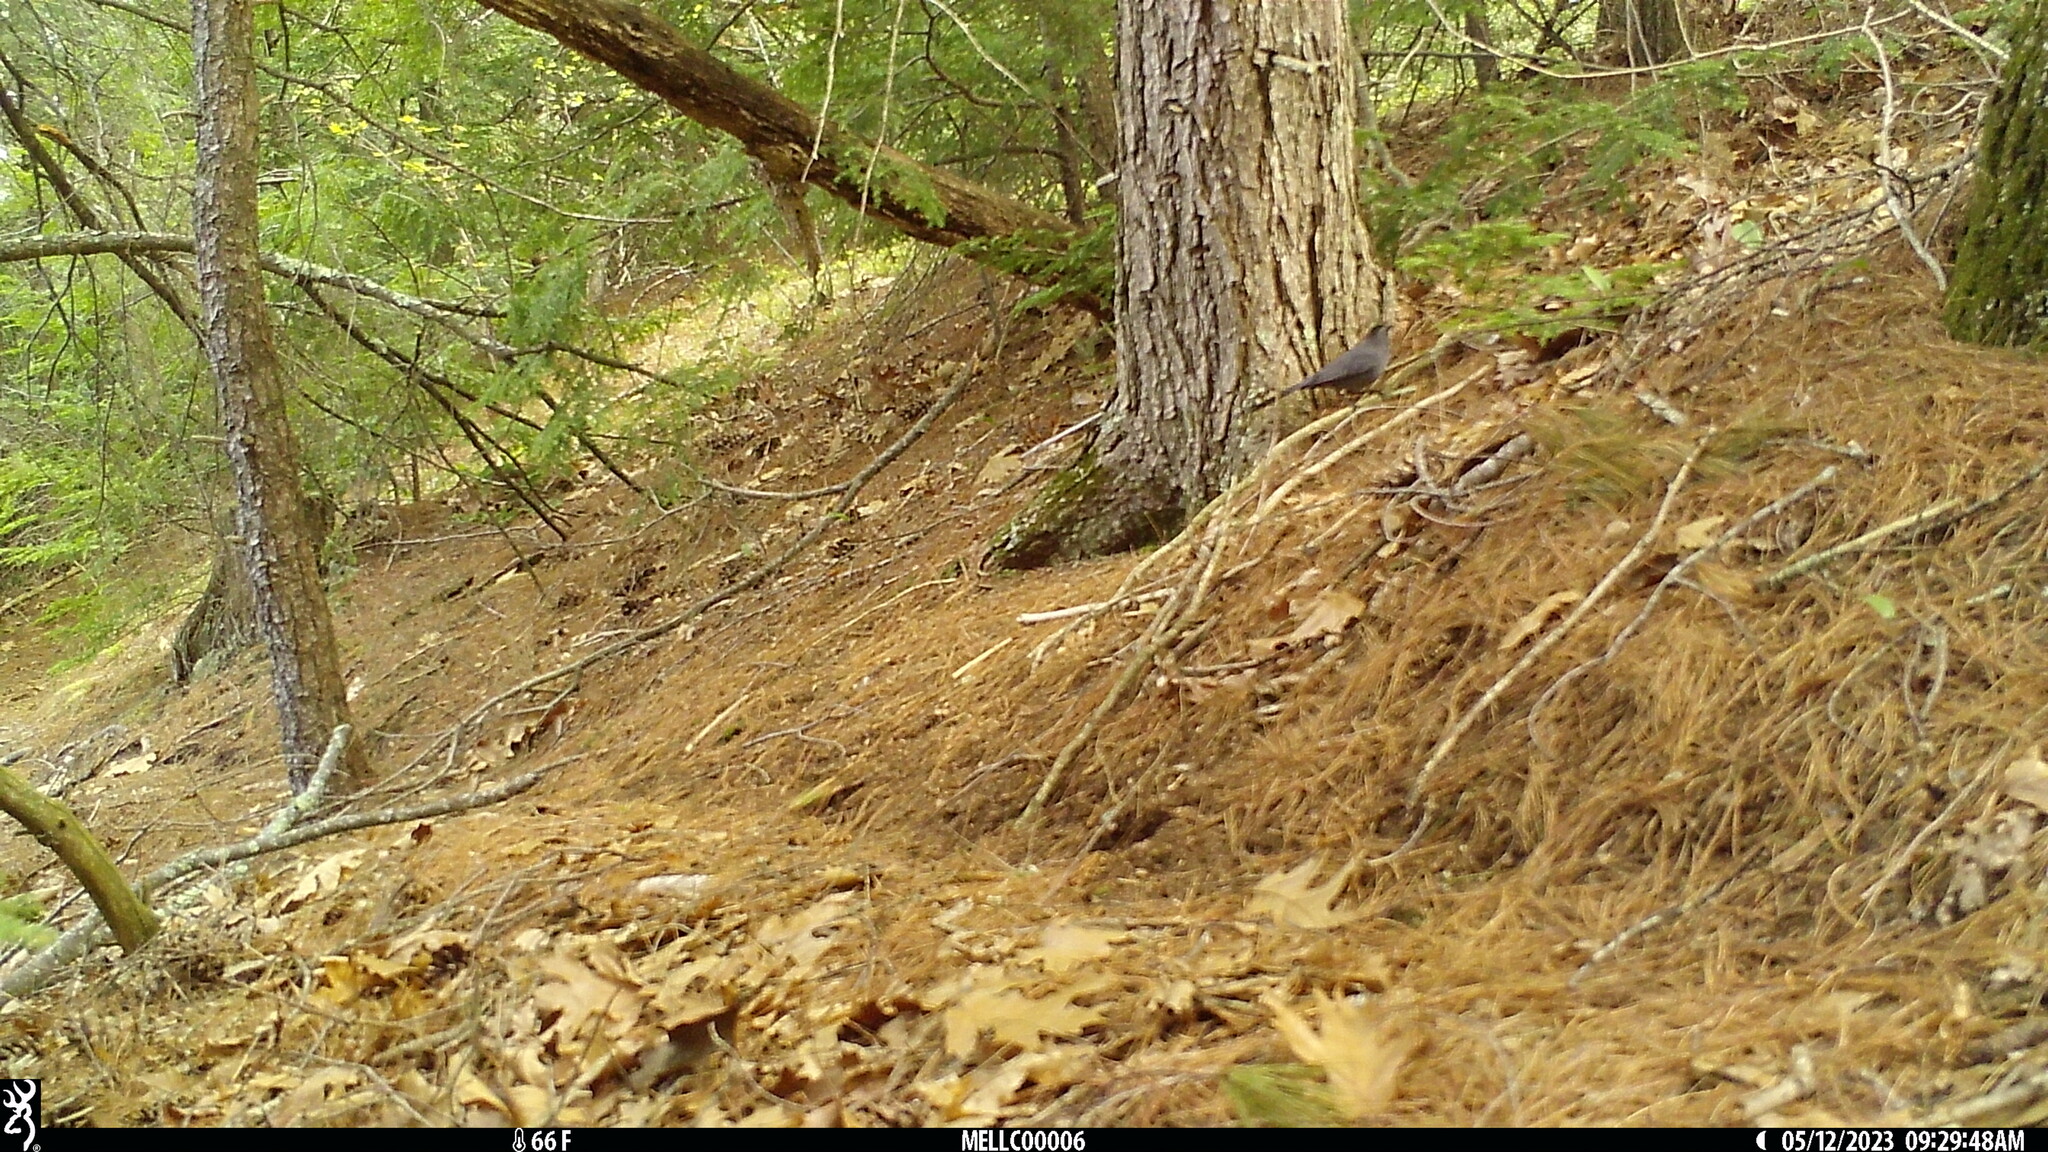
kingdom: Animalia
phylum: Chordata
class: Aves
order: Passeriformes
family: Mimidae
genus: Dumetella
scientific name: Dumetella carolinensis
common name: Gray catbird
